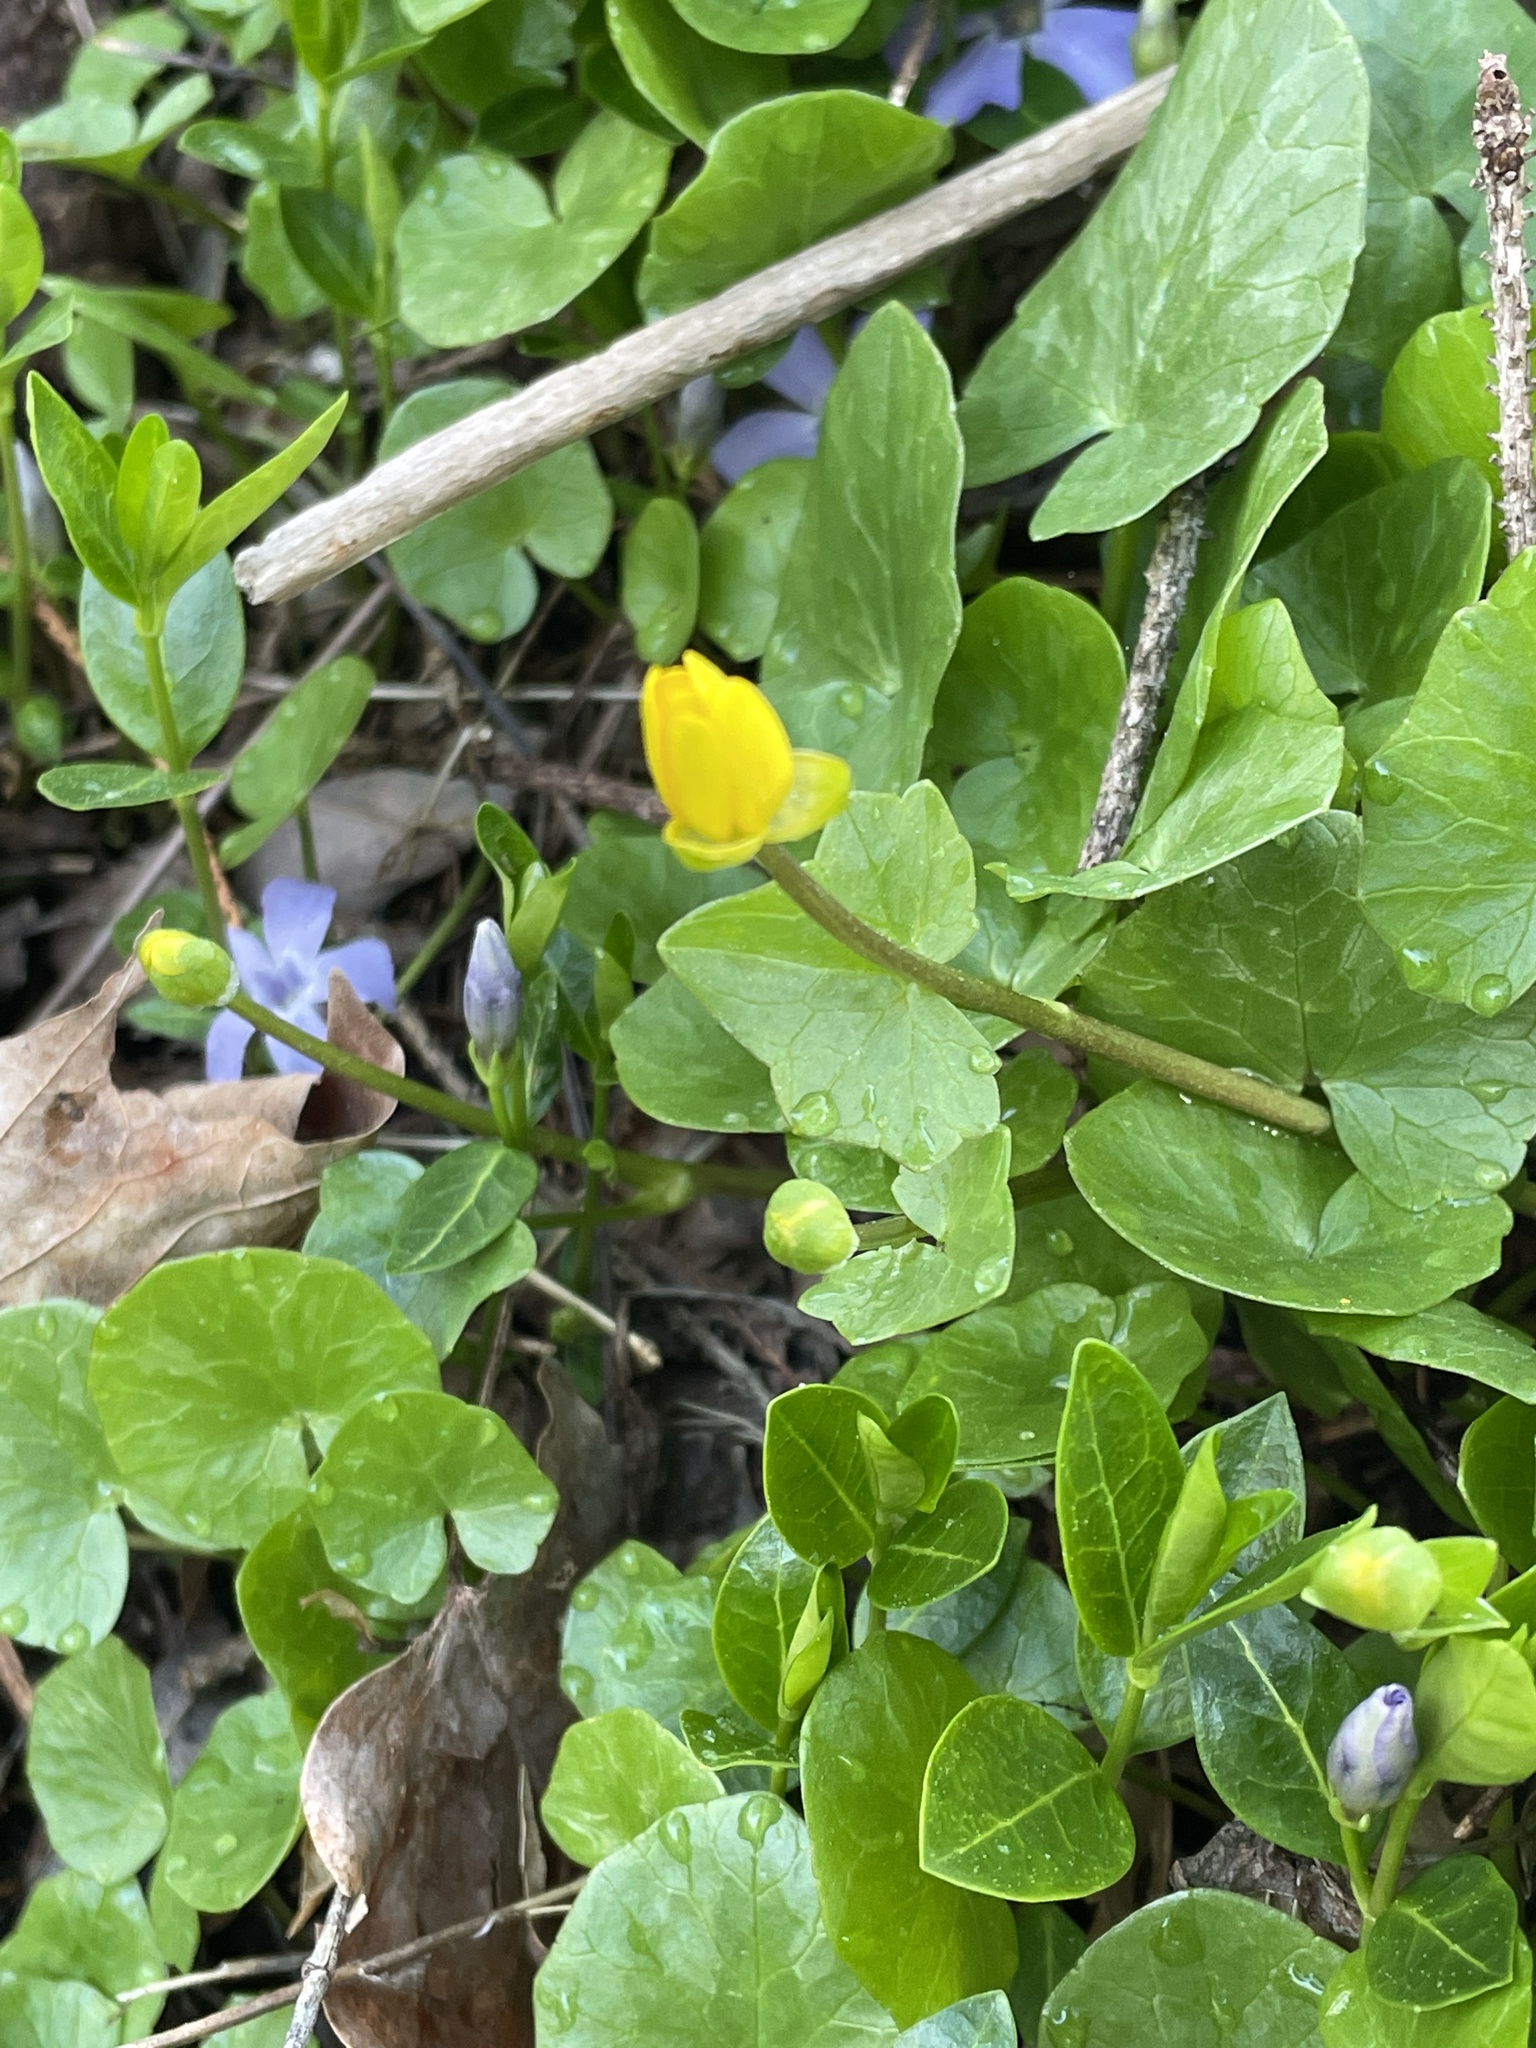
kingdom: Plantae
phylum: Tracheophyta
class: Magnoliopsida
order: Ranunculales
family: Ranunculaceae
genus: Ficaria
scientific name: Ficaria verna
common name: Lesser celandine
